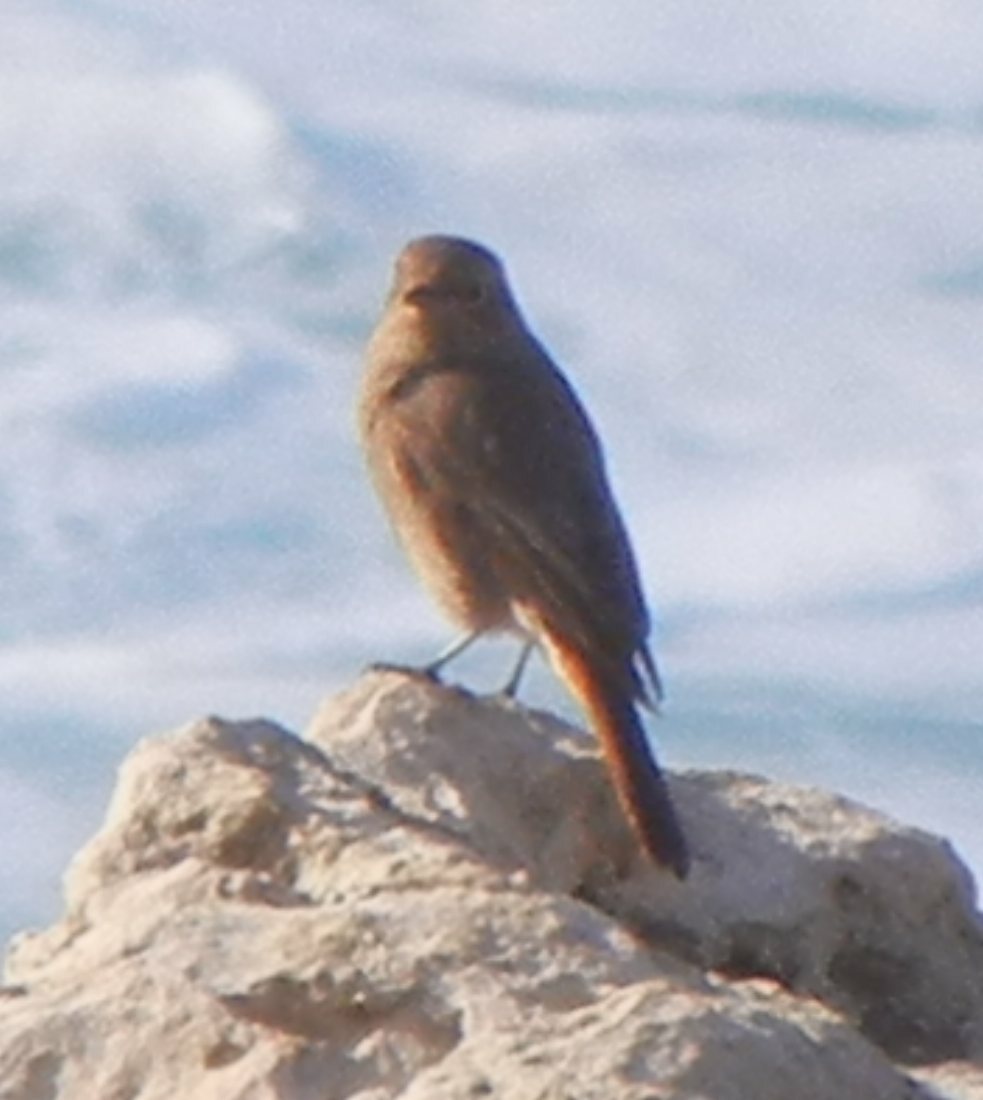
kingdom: Animalia
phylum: Chordata
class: Aves
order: Passeriformes
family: Muscicapidae
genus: Phoenicurus
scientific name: Phoenicurus ochruros
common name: Black redstart
